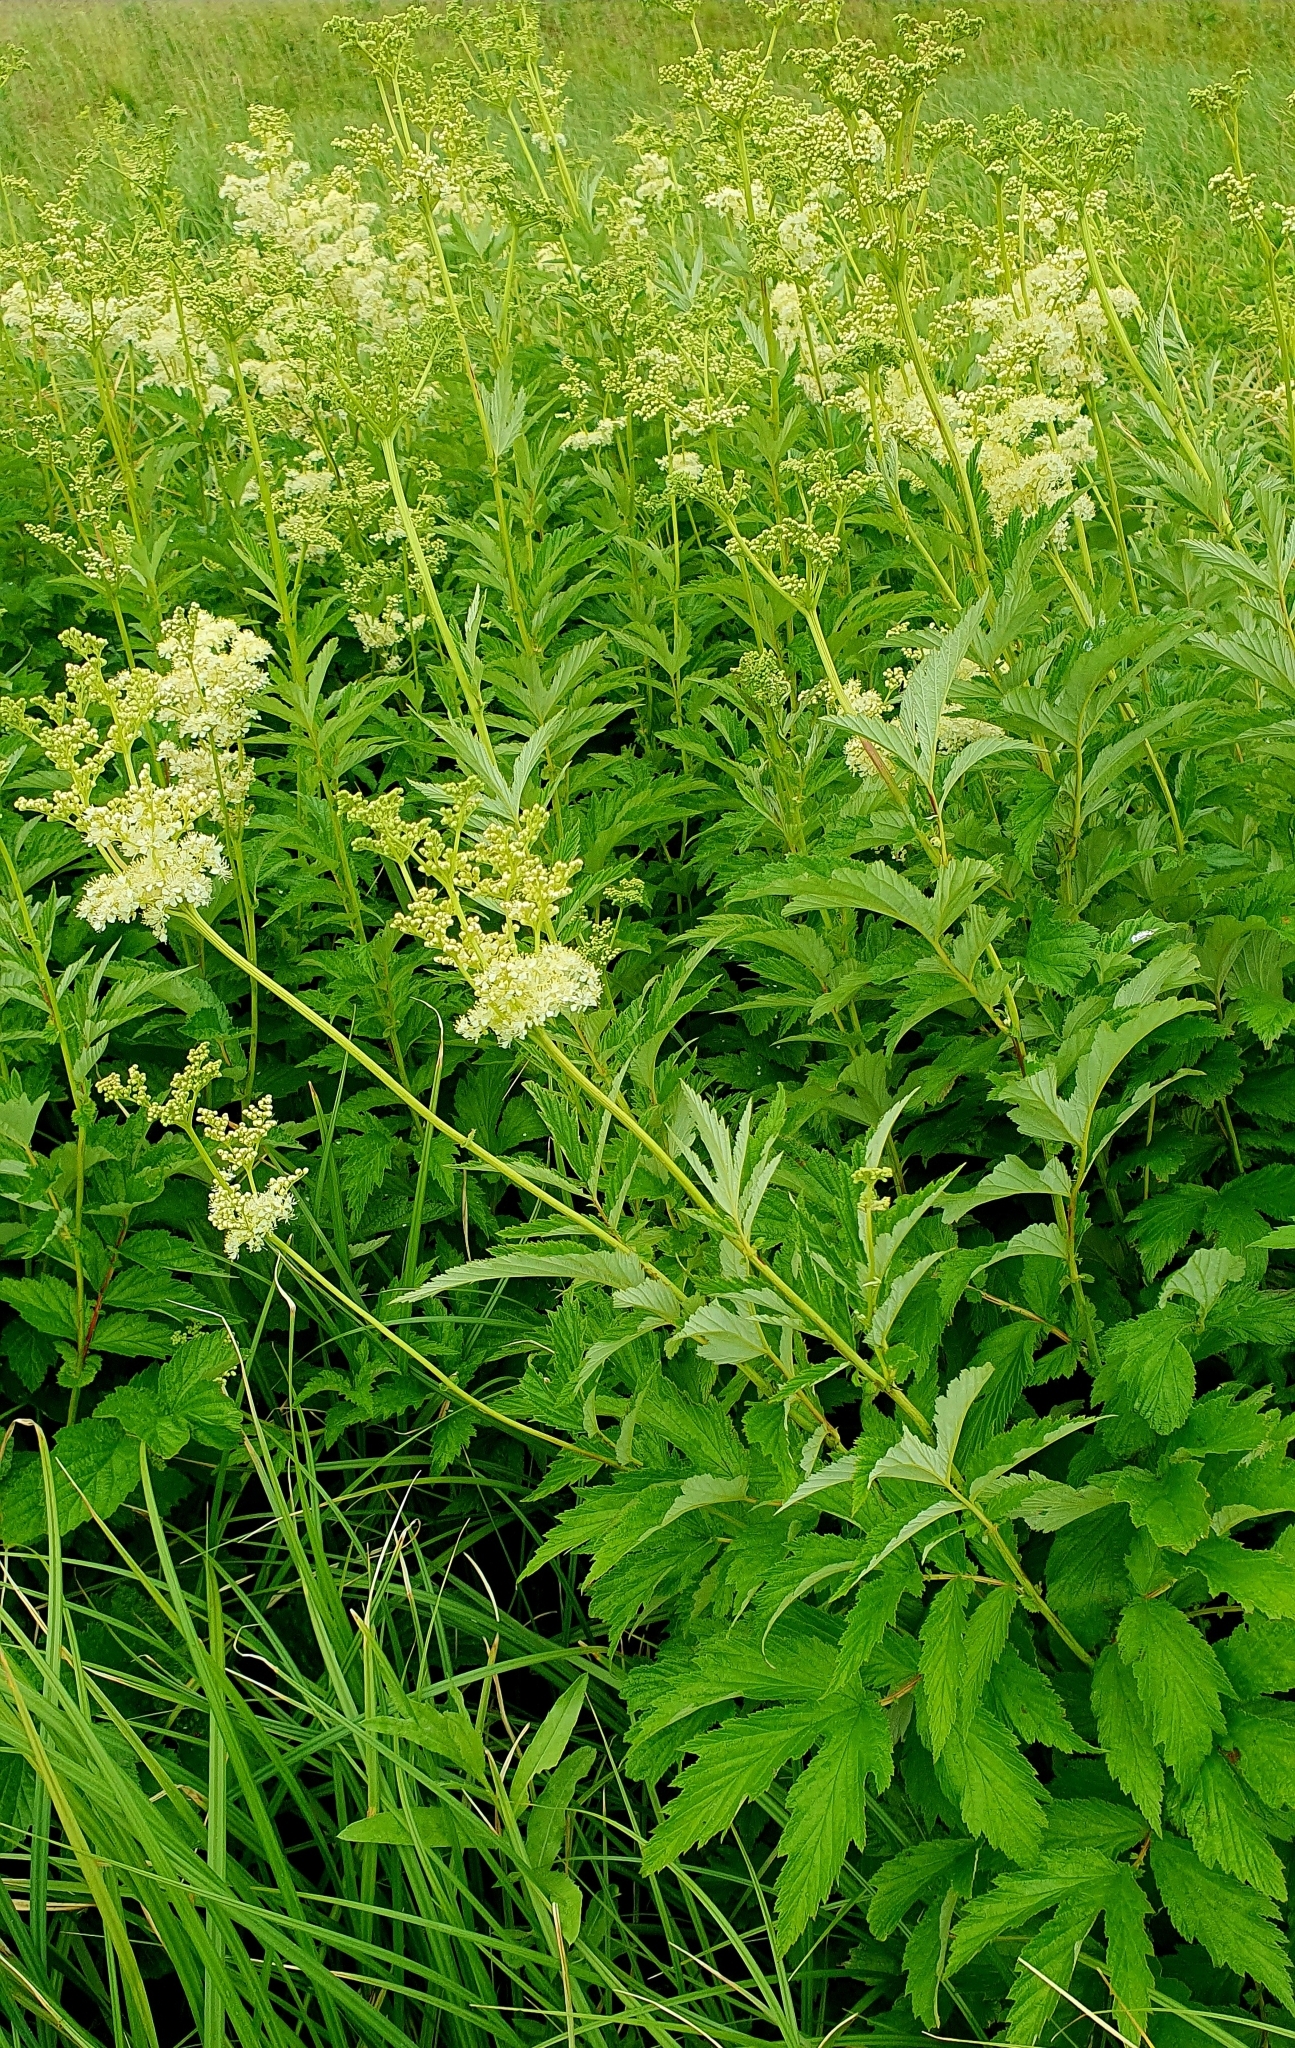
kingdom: Plantae
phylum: Tracheophyta
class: Magnoliopsida
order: Rosales
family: Rosaceae
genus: Filipendula
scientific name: Filipendula ulmaria
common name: Meadowsweet
